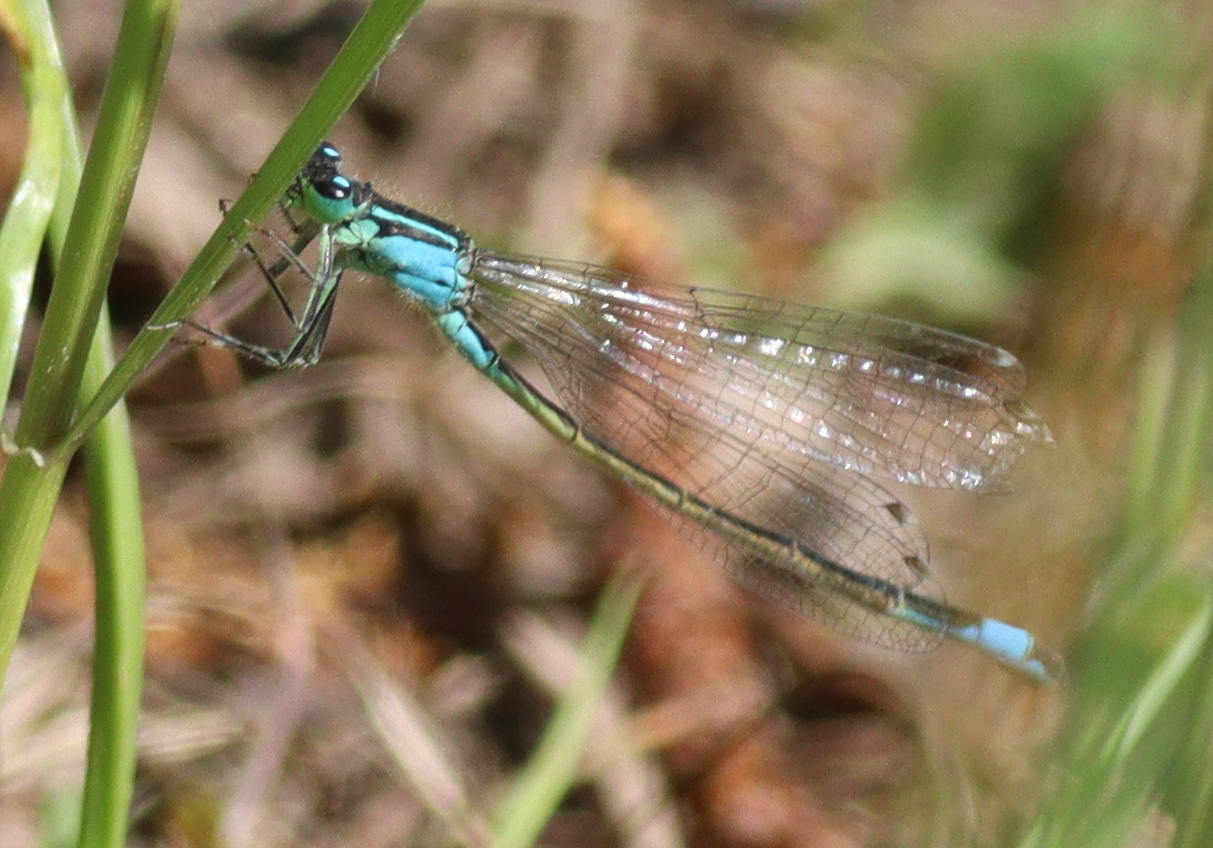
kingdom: Animalia
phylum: Arthropoda
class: Insecta
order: Odonata
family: Coenagrionidae
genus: Ischnura
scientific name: Ischnura elegans
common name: Blue-tailed damselfly
